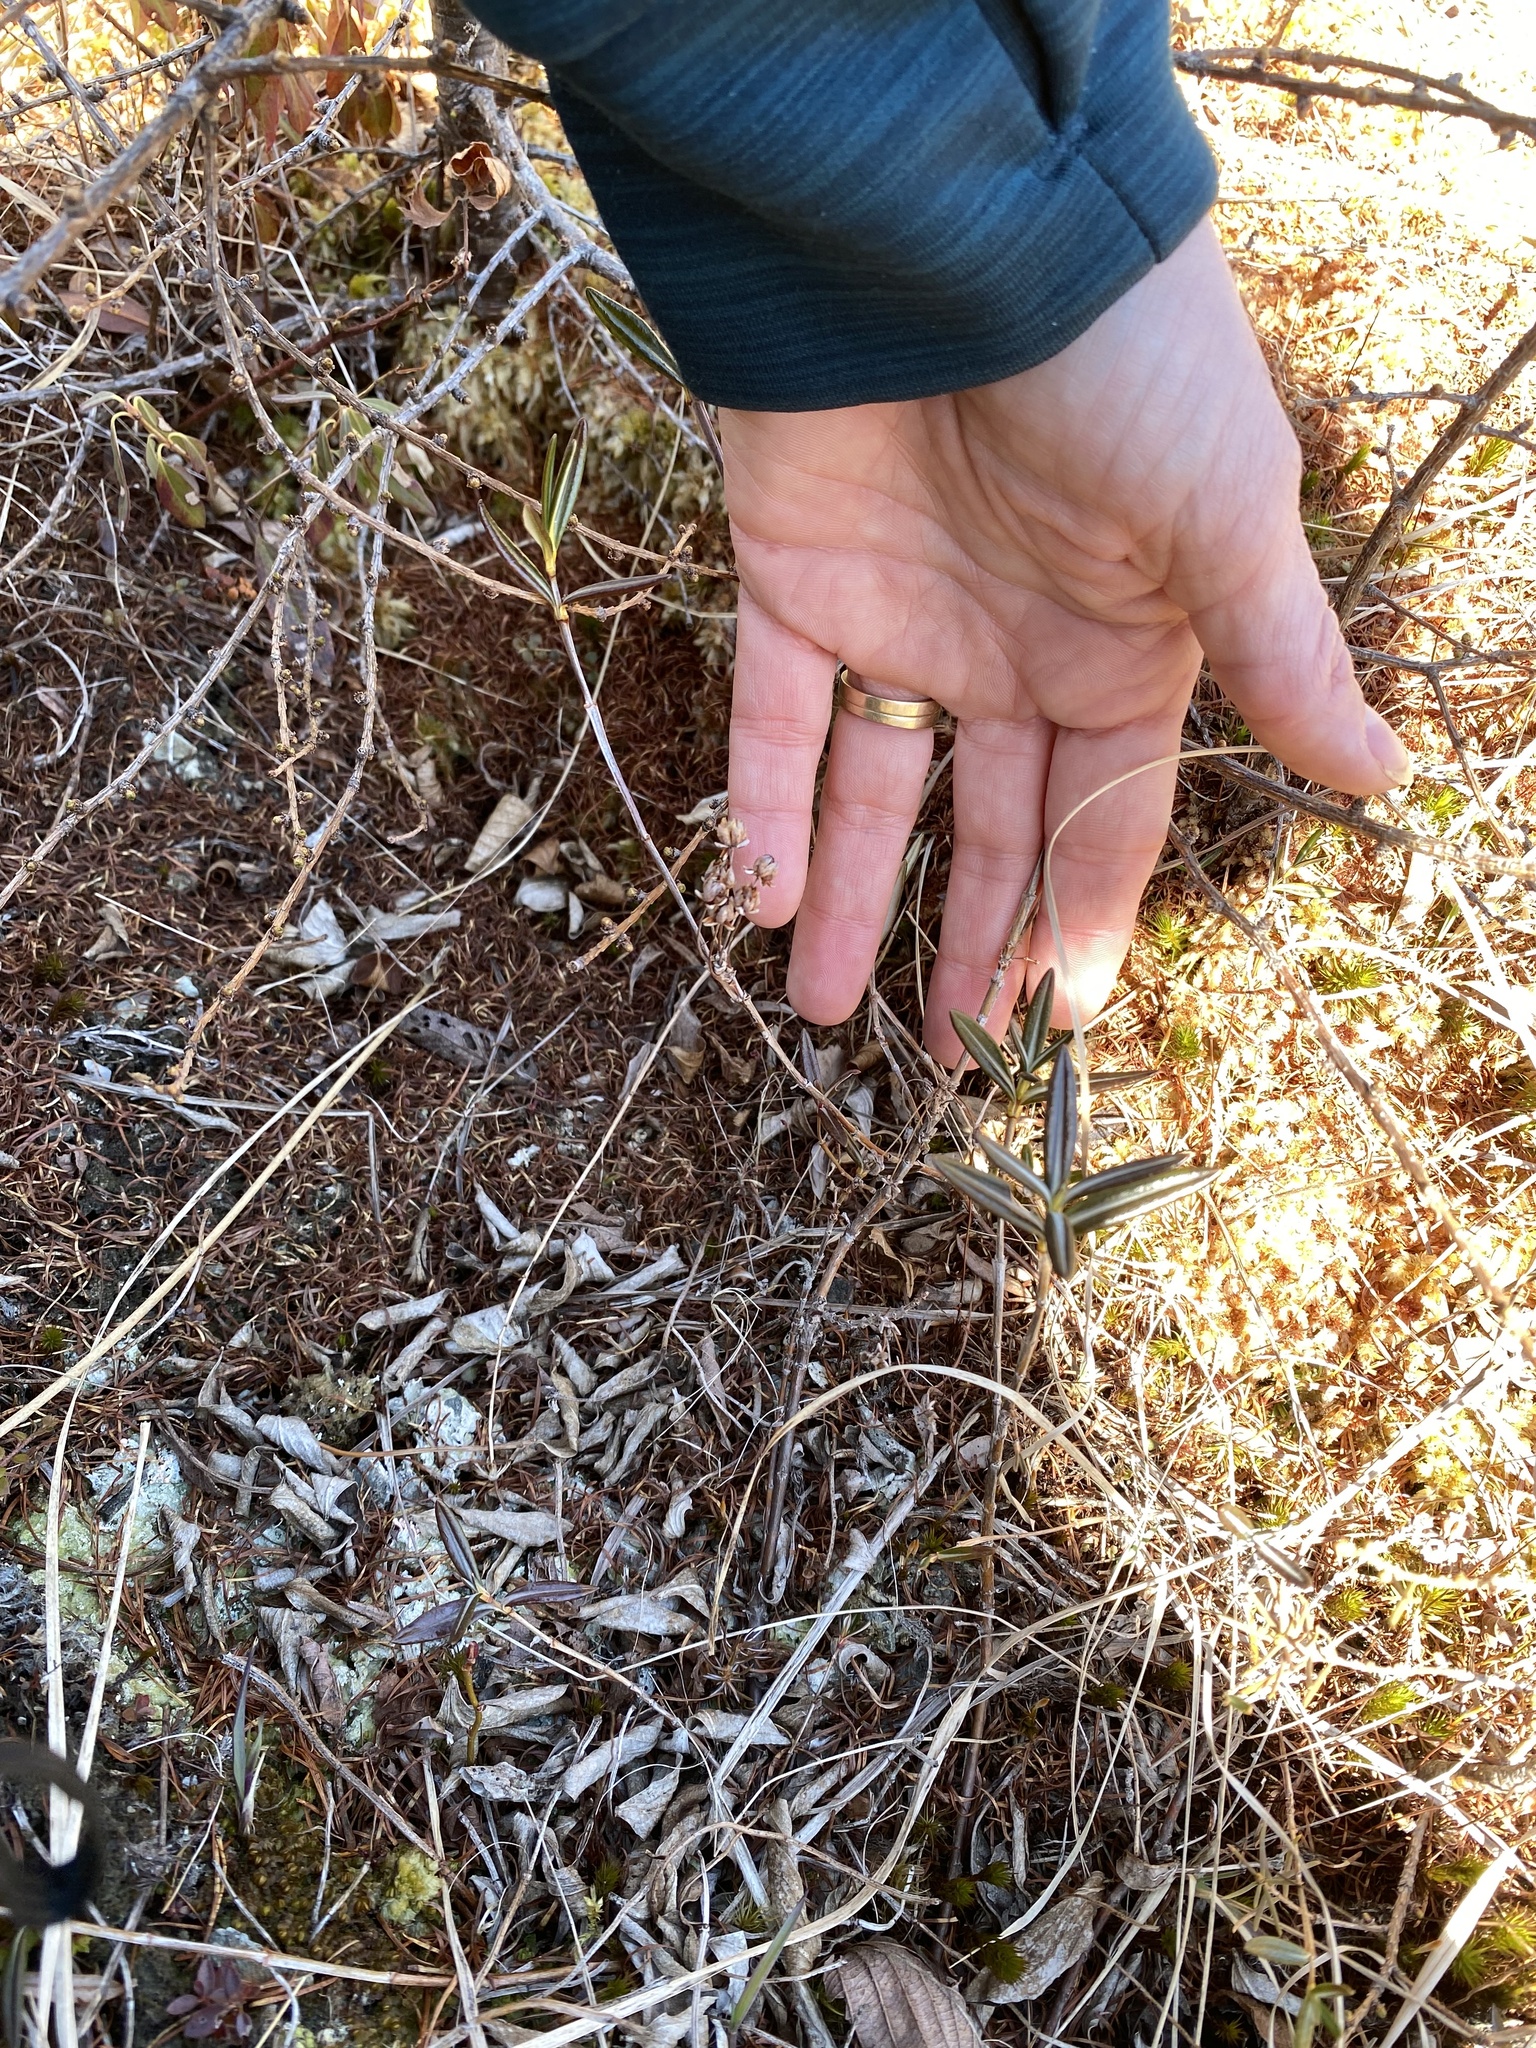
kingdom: Plantae
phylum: Tracheophyta
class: Magnoliopsida
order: Ericales
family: Ericaceae
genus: Kalmia
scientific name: Kalmia polifolia
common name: Bog-laurel
